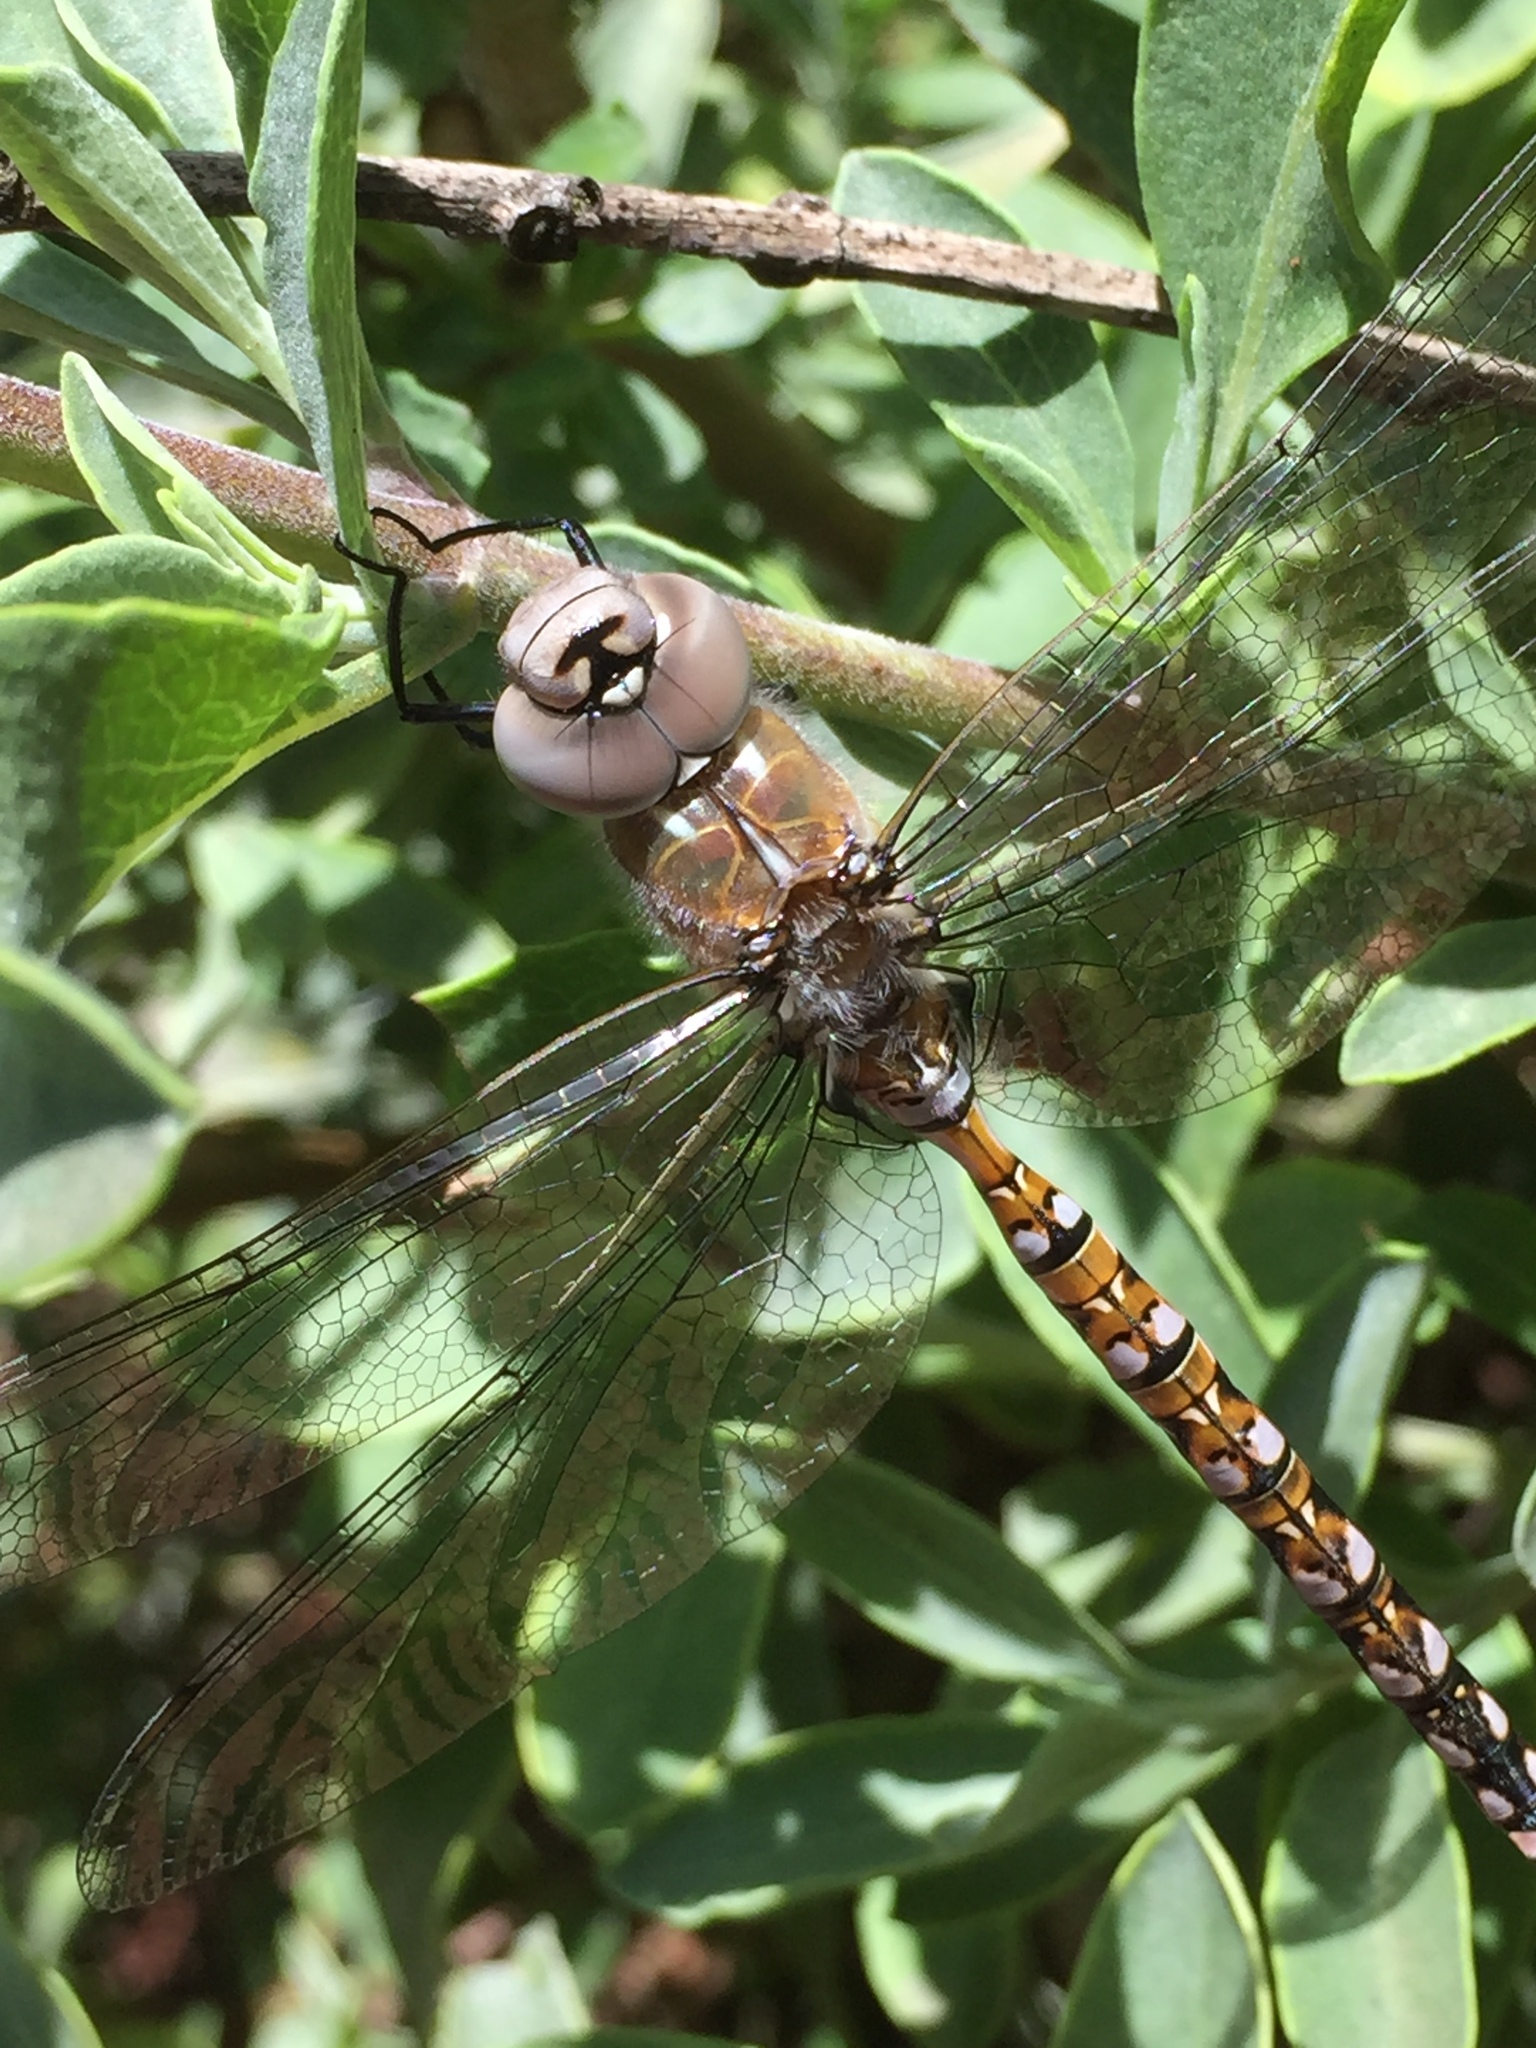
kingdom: Animalia
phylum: Arthropoda
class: Insecta
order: Odonata
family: Aeshnidae
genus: Rhionaeschna
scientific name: Rhionaeschna californica
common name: California darner
